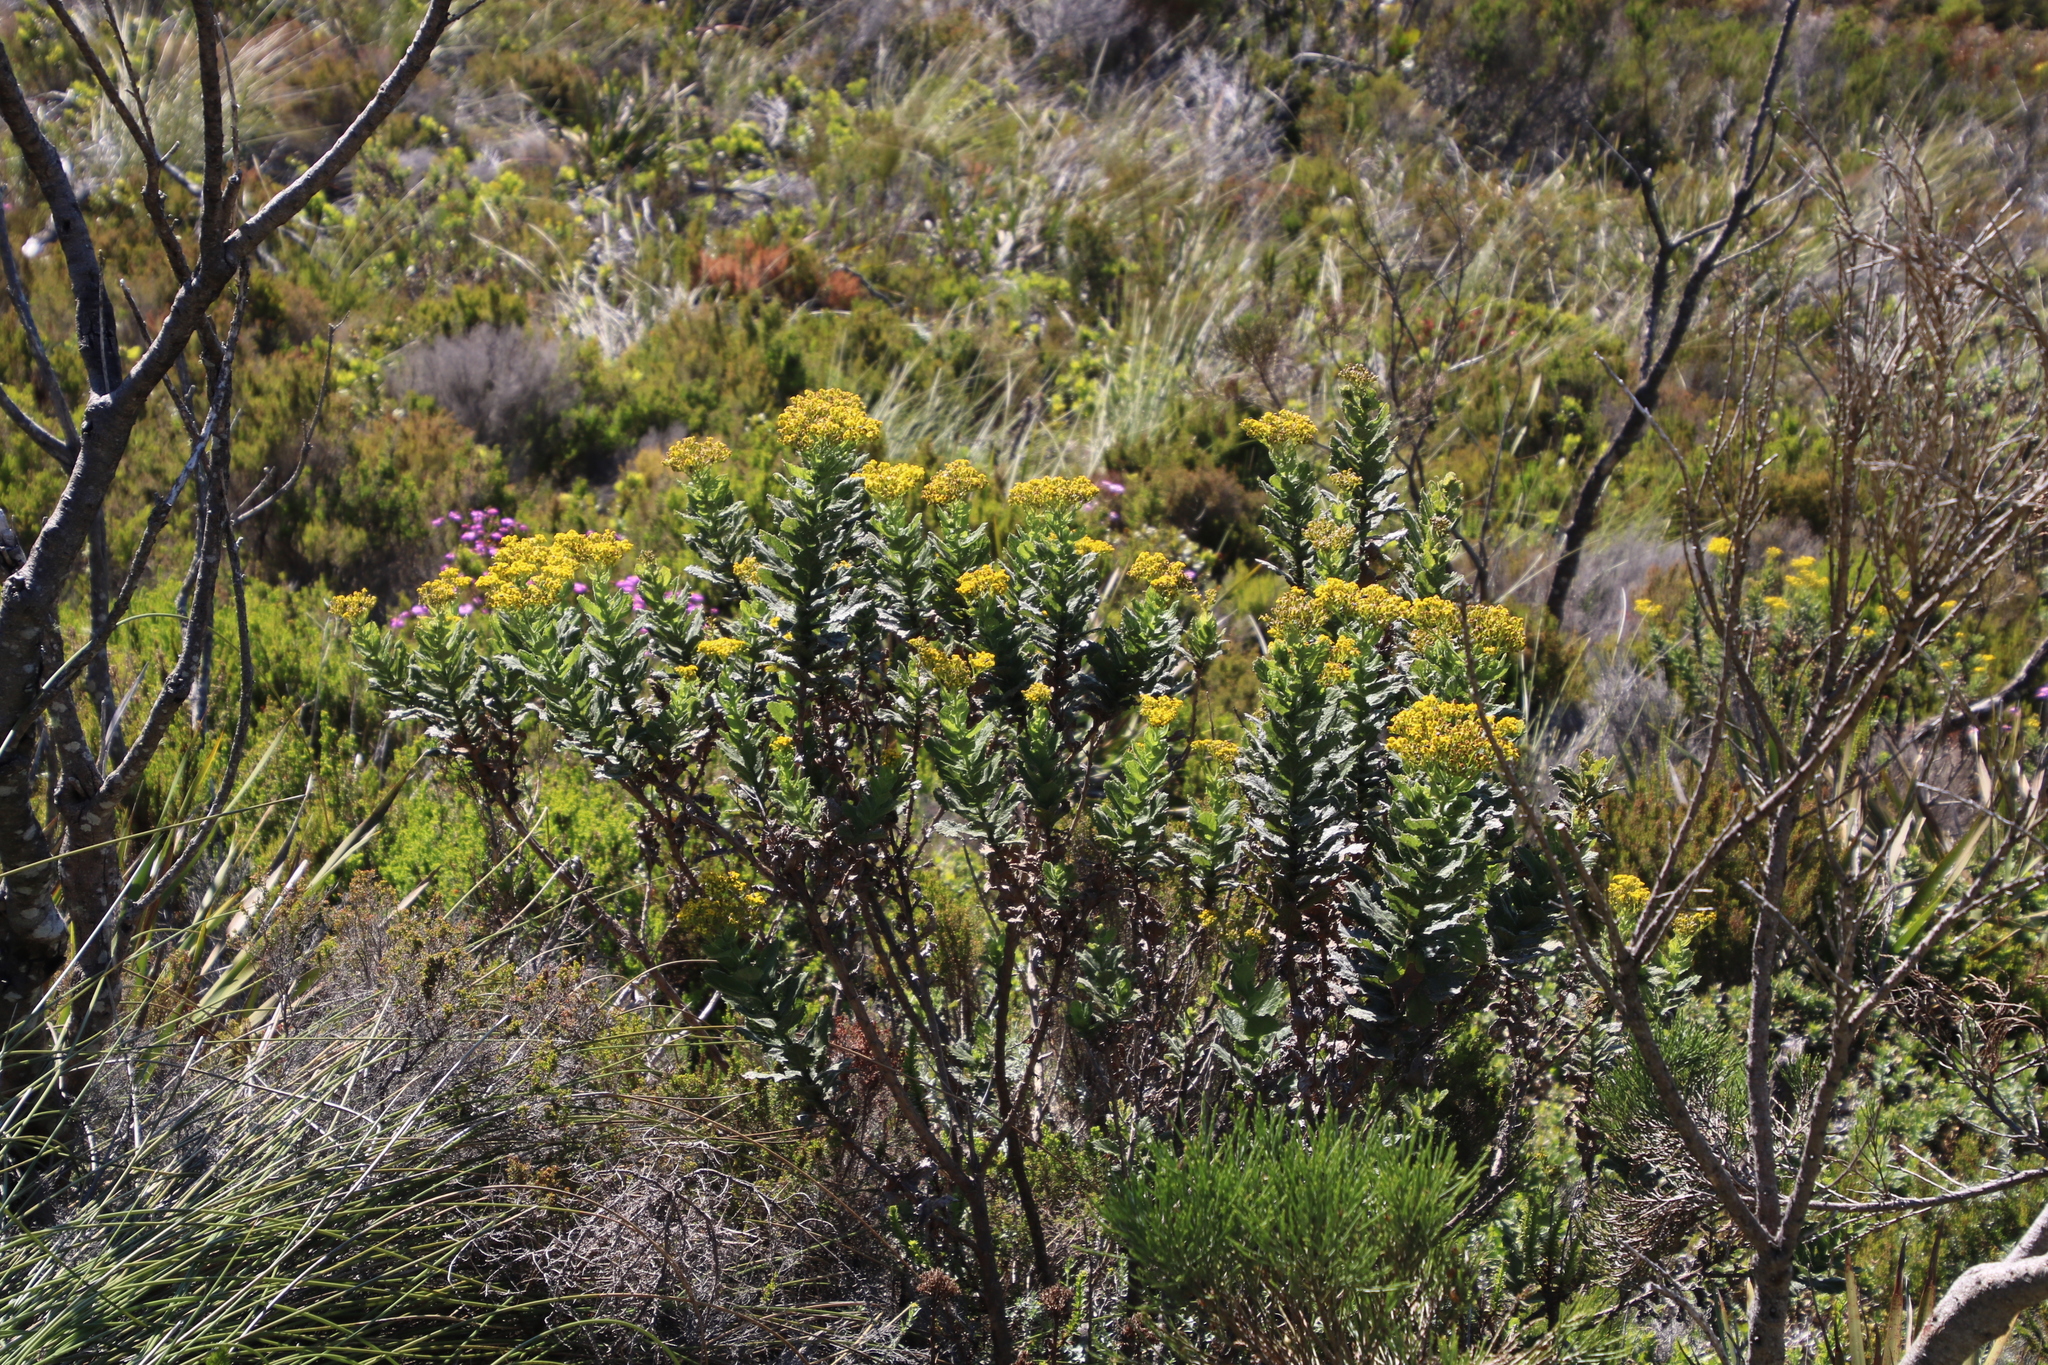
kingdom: Plantae
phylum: Tracheophyta
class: Magnoliopsida
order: Asterales
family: Asteraceae
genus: Senecio
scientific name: Senecio rigidus
